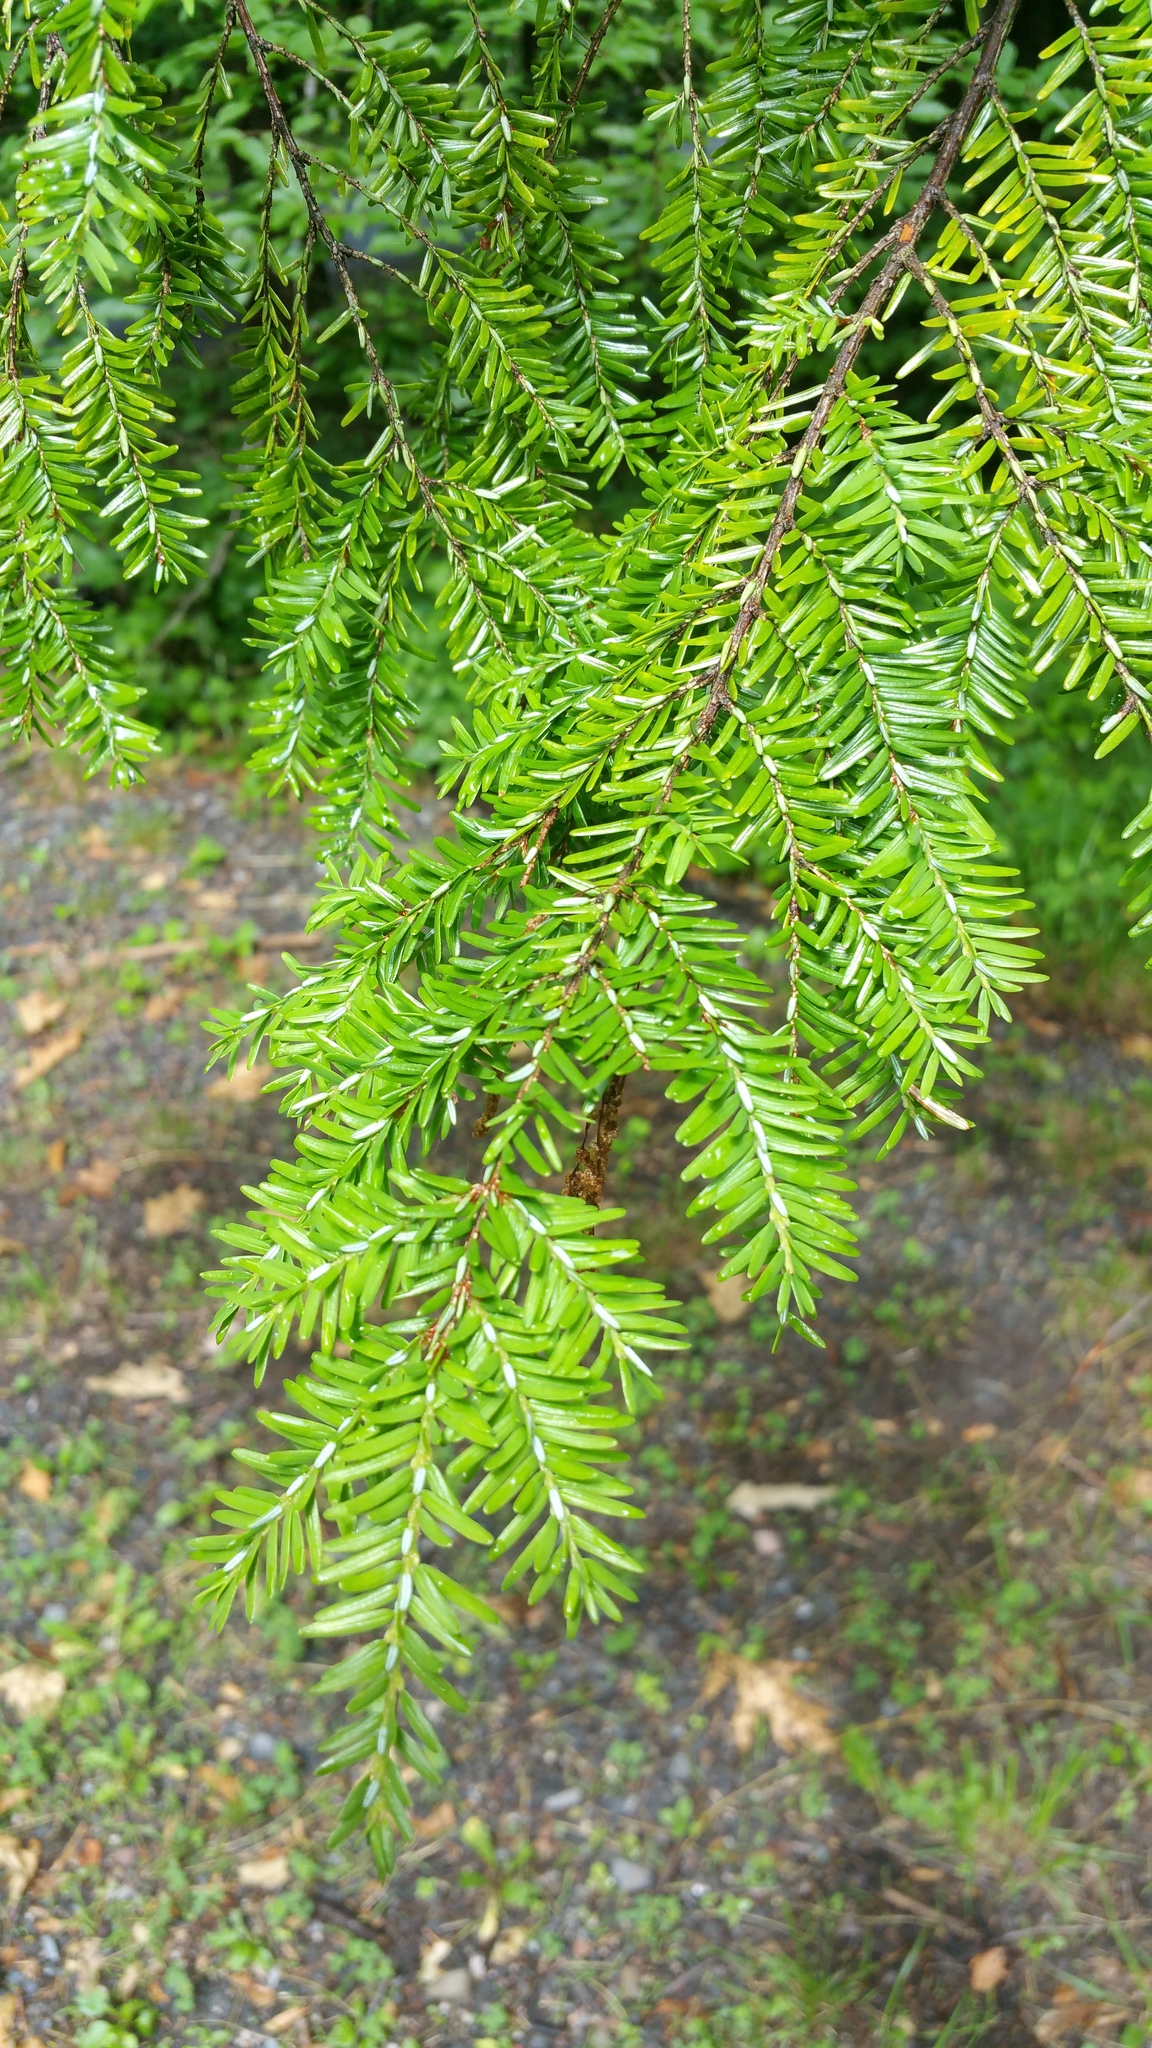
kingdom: Plantae
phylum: Tracheophyta
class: Pinopsida
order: Pinales
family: Pinaceae
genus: Tsuga
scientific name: Tsuga canadensis
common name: Eastern hemlock
